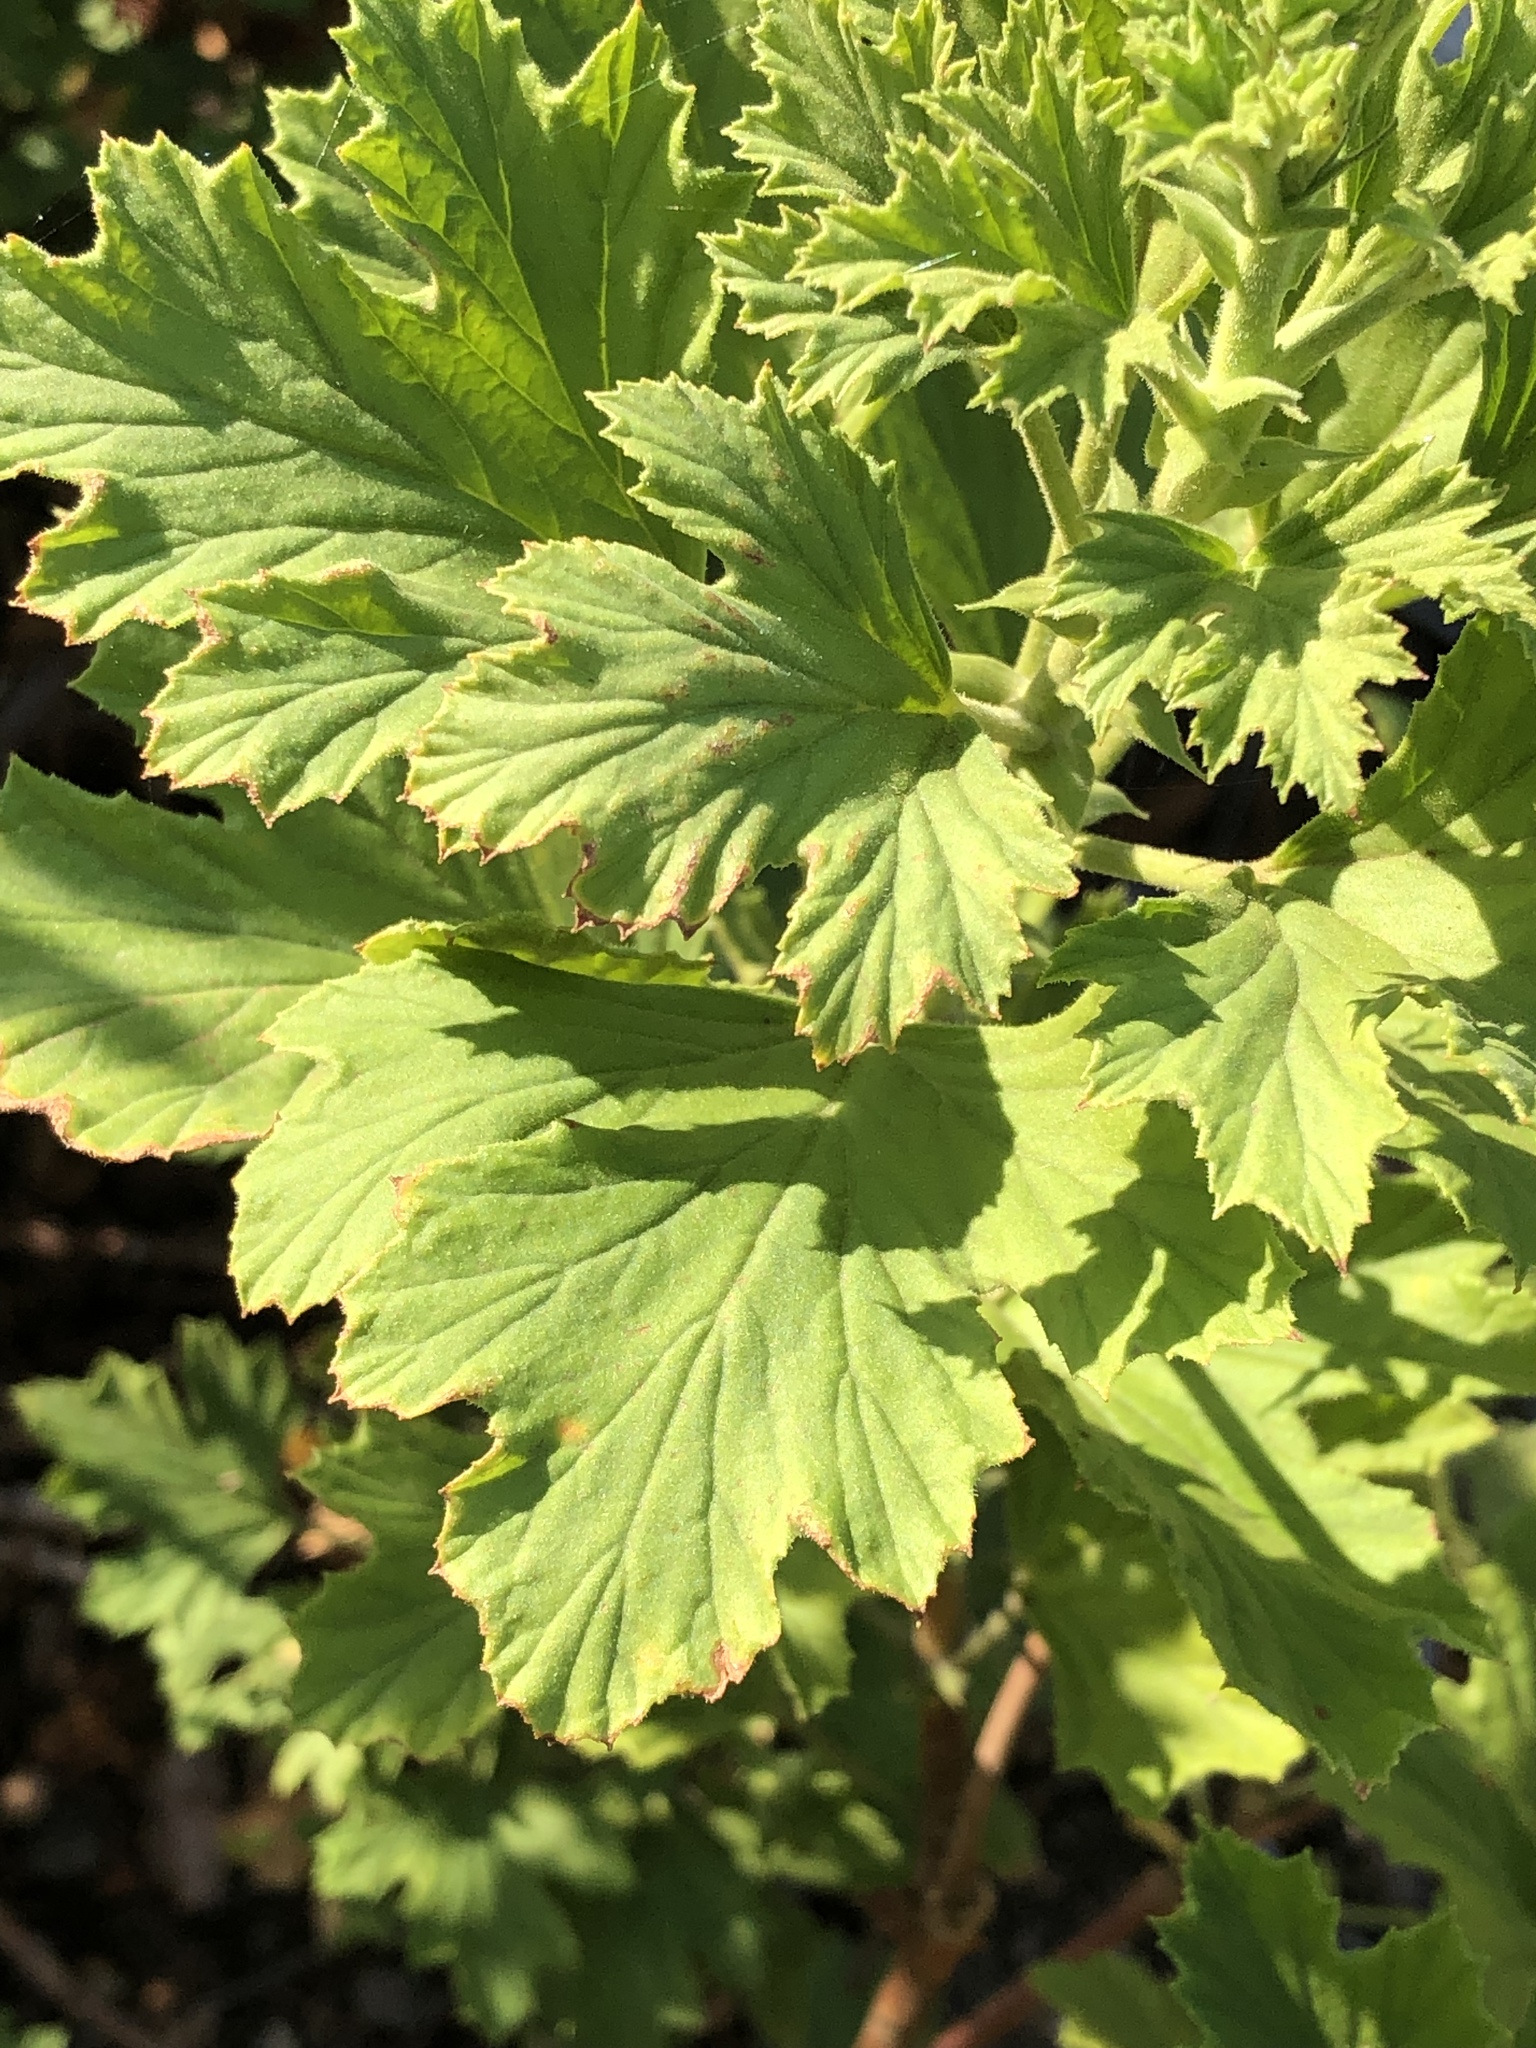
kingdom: Plantae
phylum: Tracheophyta
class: Magnoliopsida
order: Geraniales
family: Geraniaceae
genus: Pelargonium
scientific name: Pelargonium ribifolium
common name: Currant-leaf pelargonium
